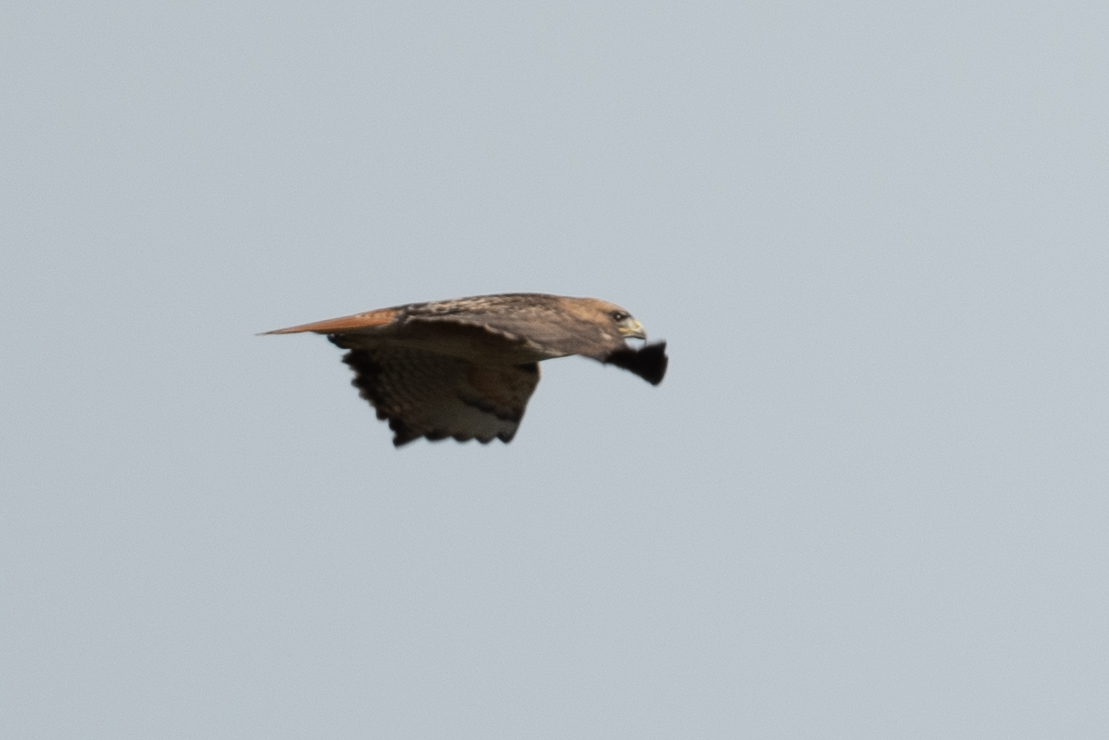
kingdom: Animalia
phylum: Chordata
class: Aves
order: Accipitriformes
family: Accipitridae
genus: Buteo
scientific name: Buteo jamaicensis
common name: Red-tailed hawk
